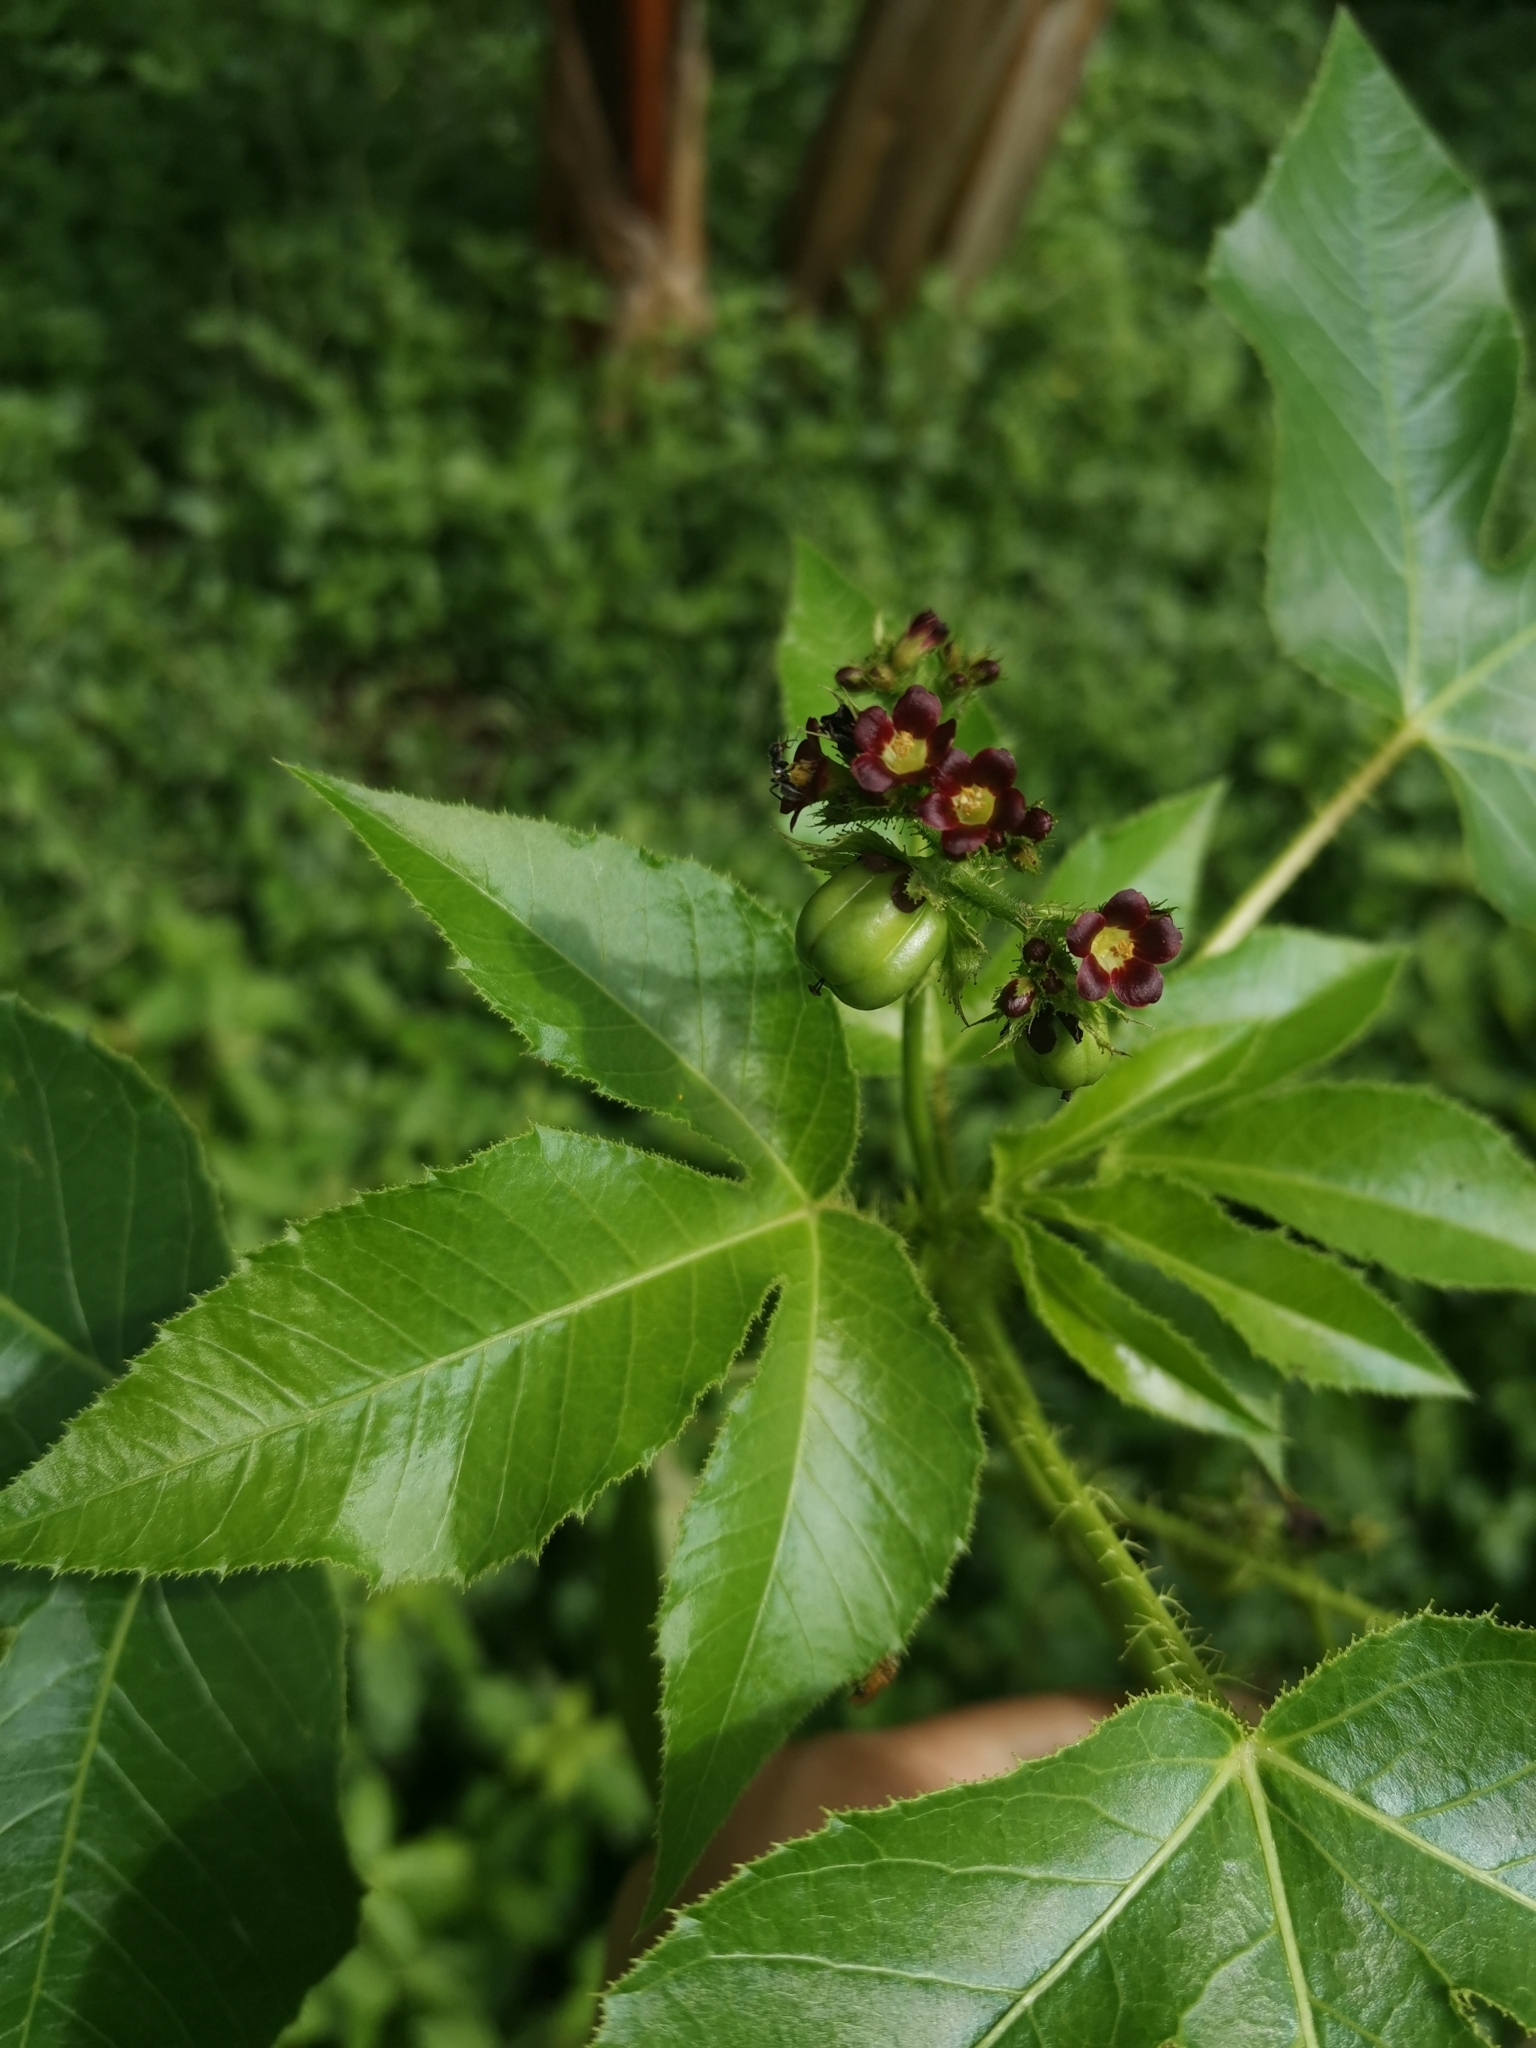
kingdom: Plantae
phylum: Tracheophyta
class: Magnoliopsida
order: Malpighiales
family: Euphorbiaceae
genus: Jatropha
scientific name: Jatropha gossypiifolia
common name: Bellyache bush
